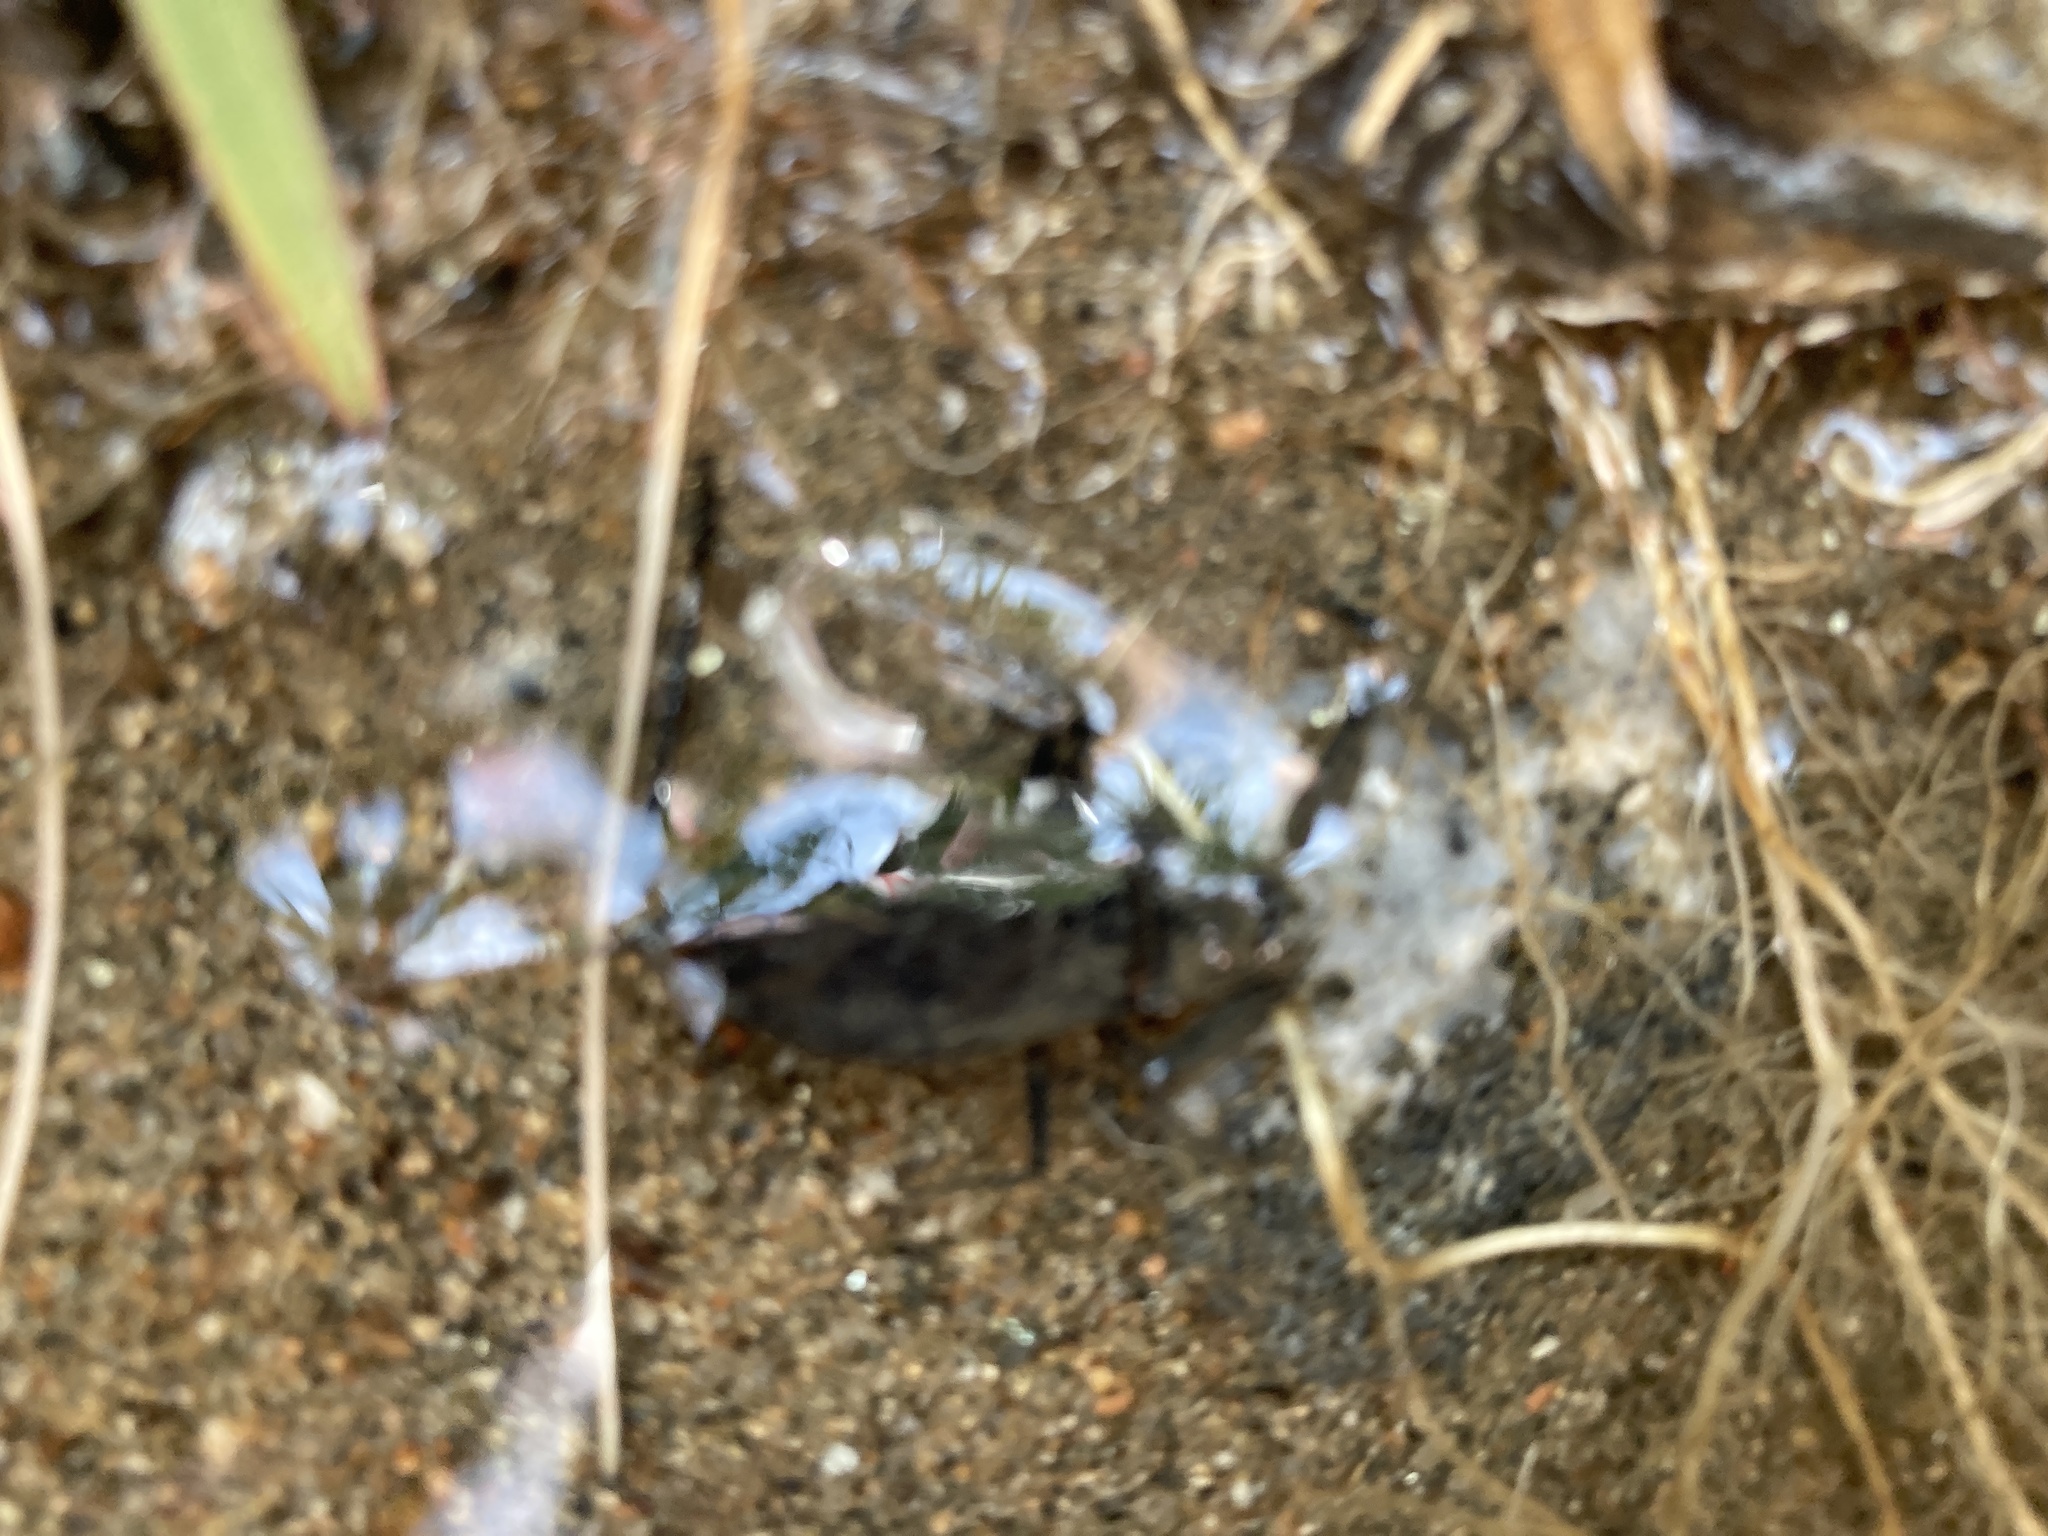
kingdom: Animalia
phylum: Arthropoda
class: Insecta
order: Hemiptera
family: Nepidae
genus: Nepa
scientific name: Nepa cinerea
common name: Water scorpion
